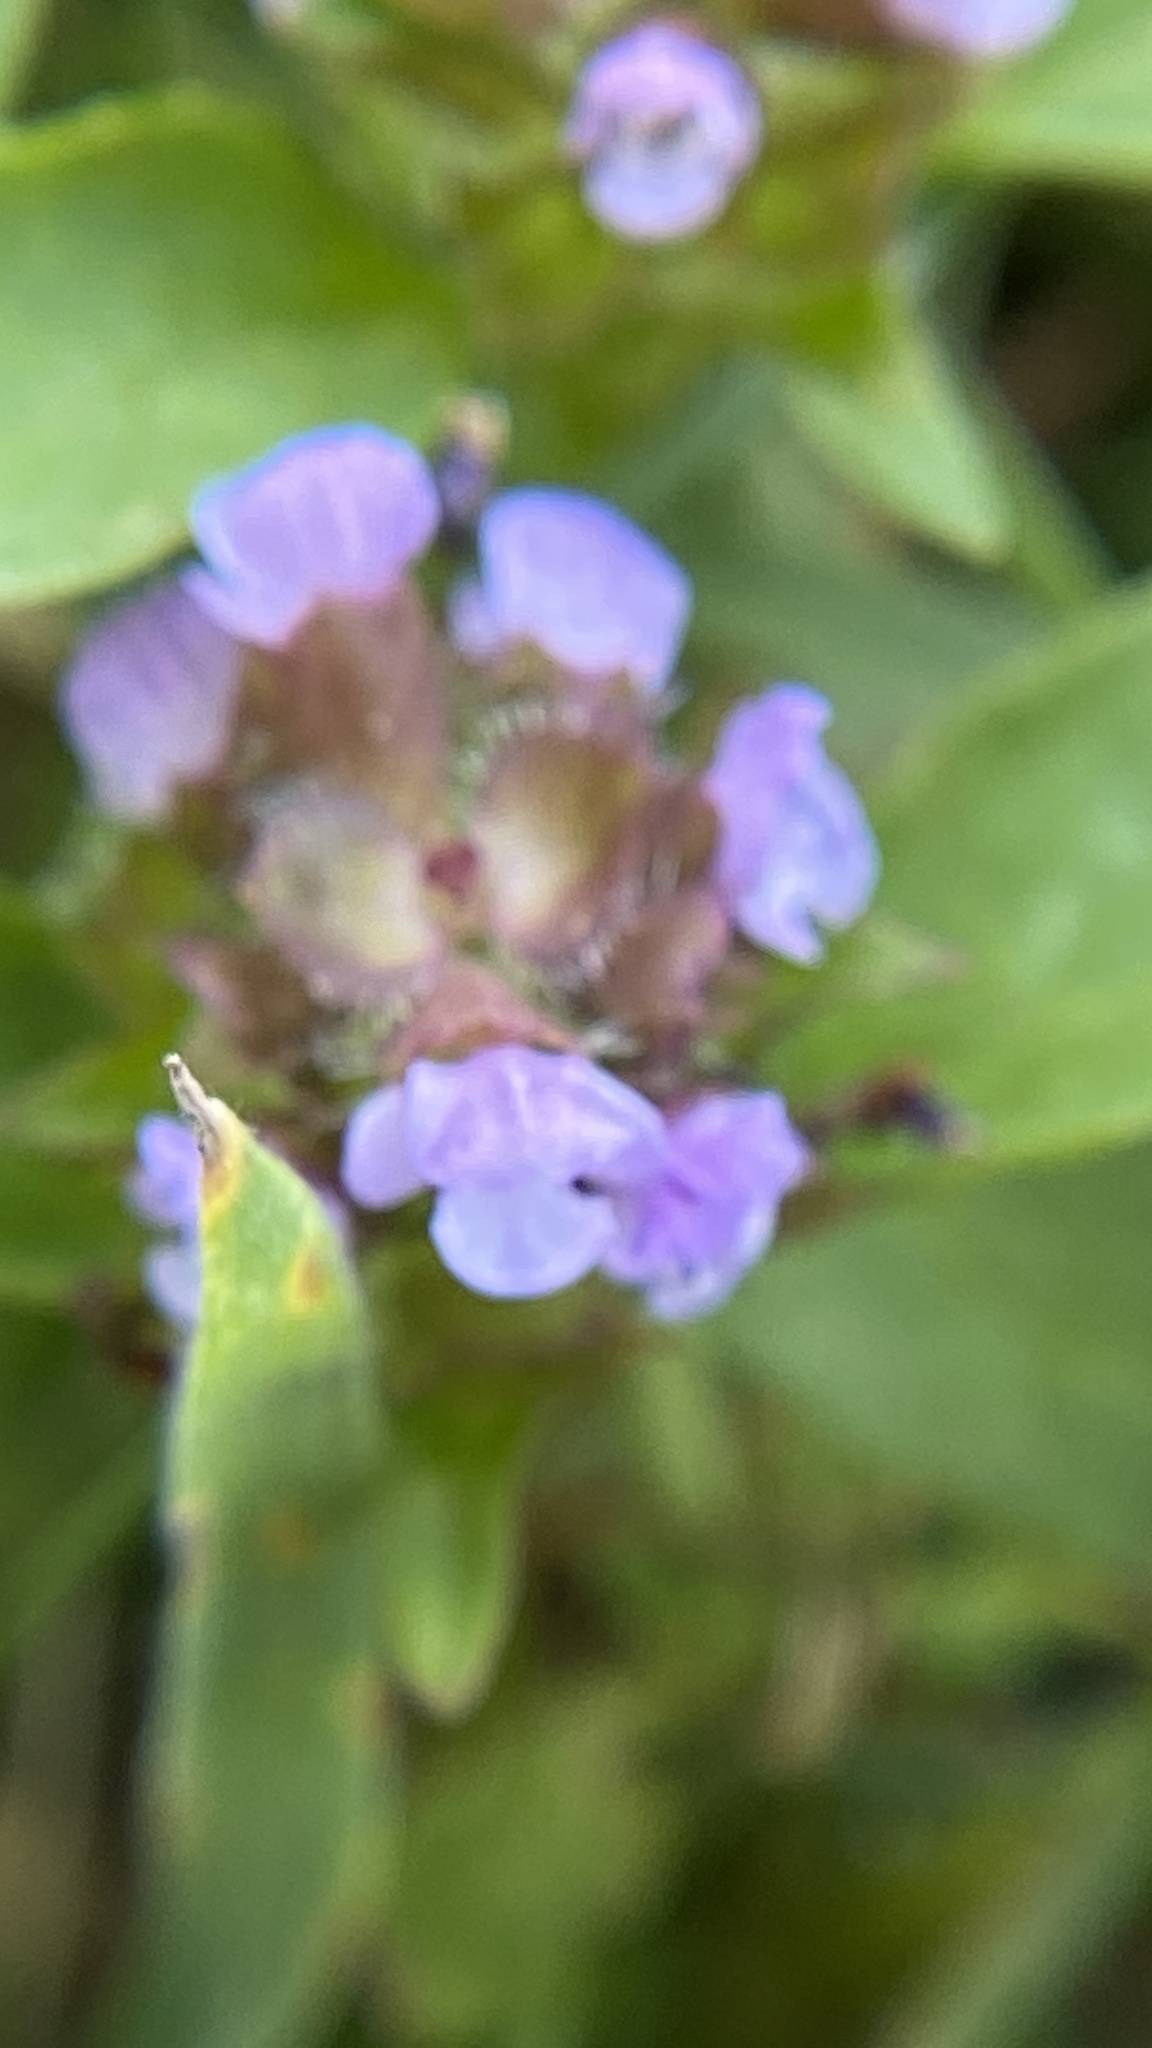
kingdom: Plantae
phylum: Tracheophyta
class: Magnoliopsida
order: Lamiales
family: Lamiaceae
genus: Prunella
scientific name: Prunella vulgaris
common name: Heal-all
